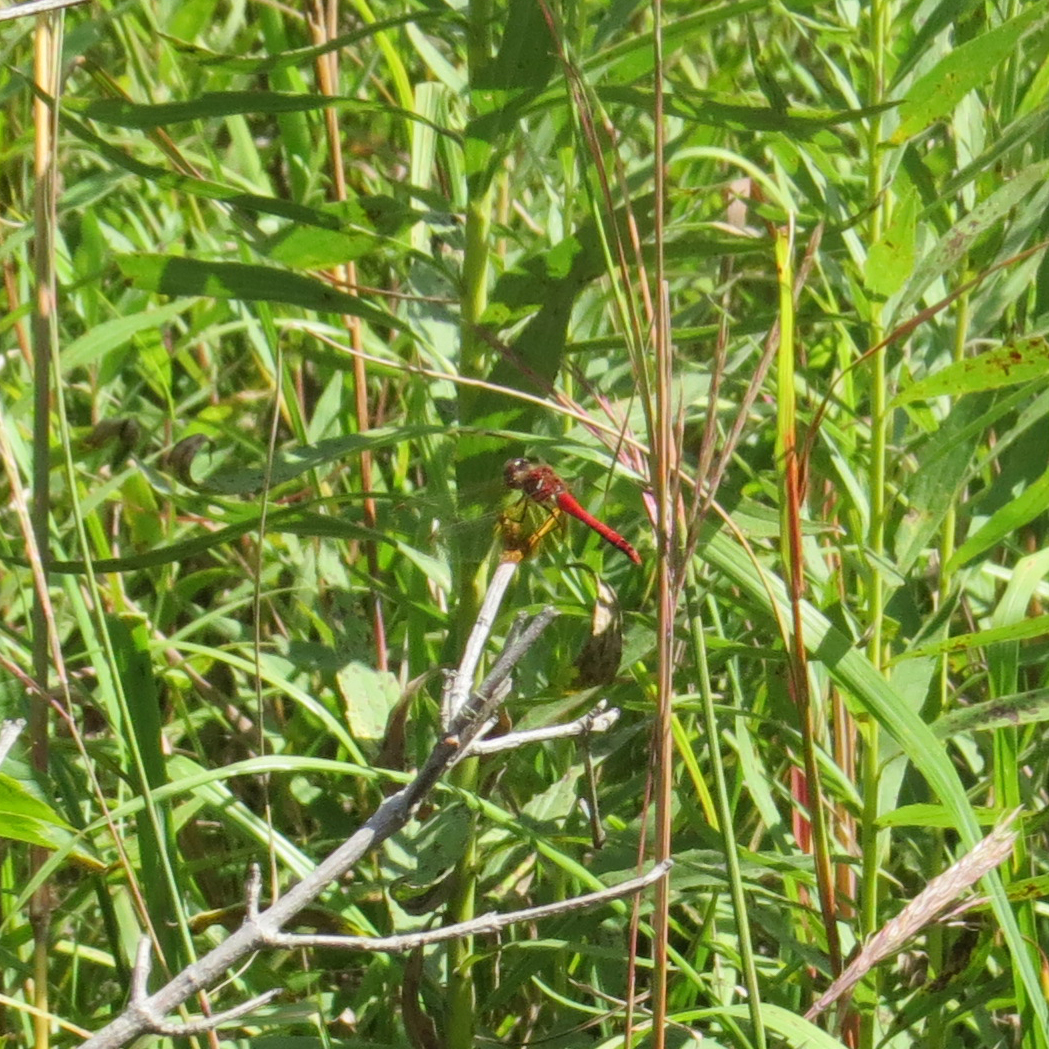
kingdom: Animalia
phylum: Arthropoda
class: Insecta
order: Odonata
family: Libellulidae
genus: Sympetrum
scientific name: Sympetrum semicinctum
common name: Band-winged meadowhawk
